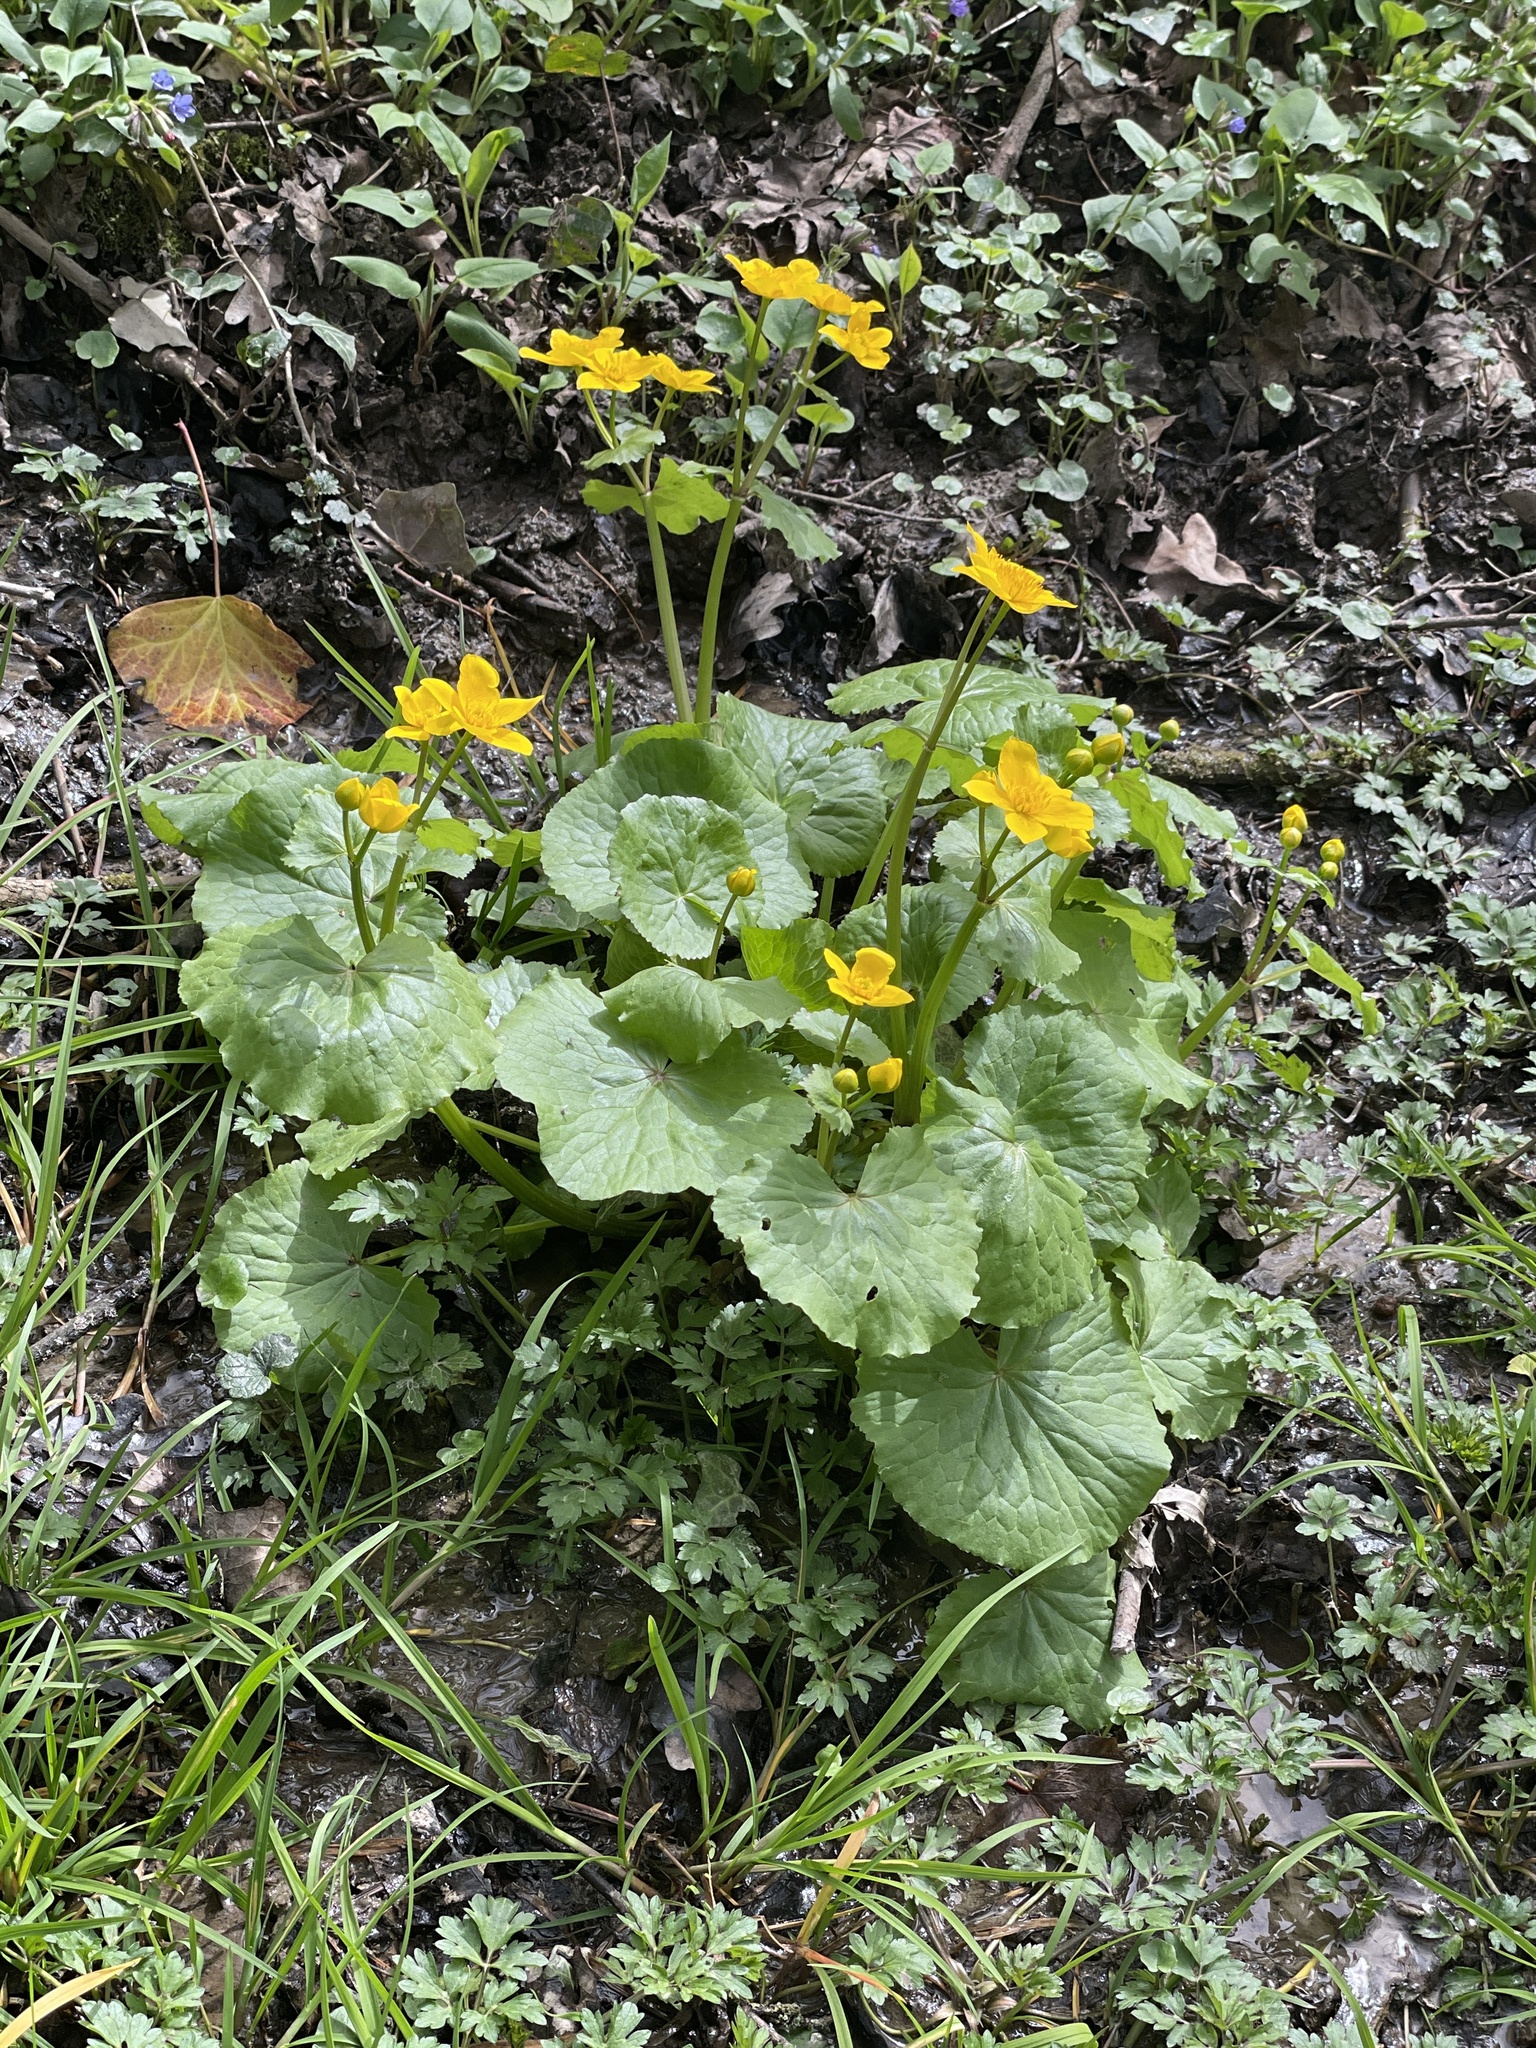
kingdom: Plantae
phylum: Tracheophyta
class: Magnoliopsida
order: Ranunculales
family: Ranunculaceae
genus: Caltha
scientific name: Caltha palustris
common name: Marsh marigold
